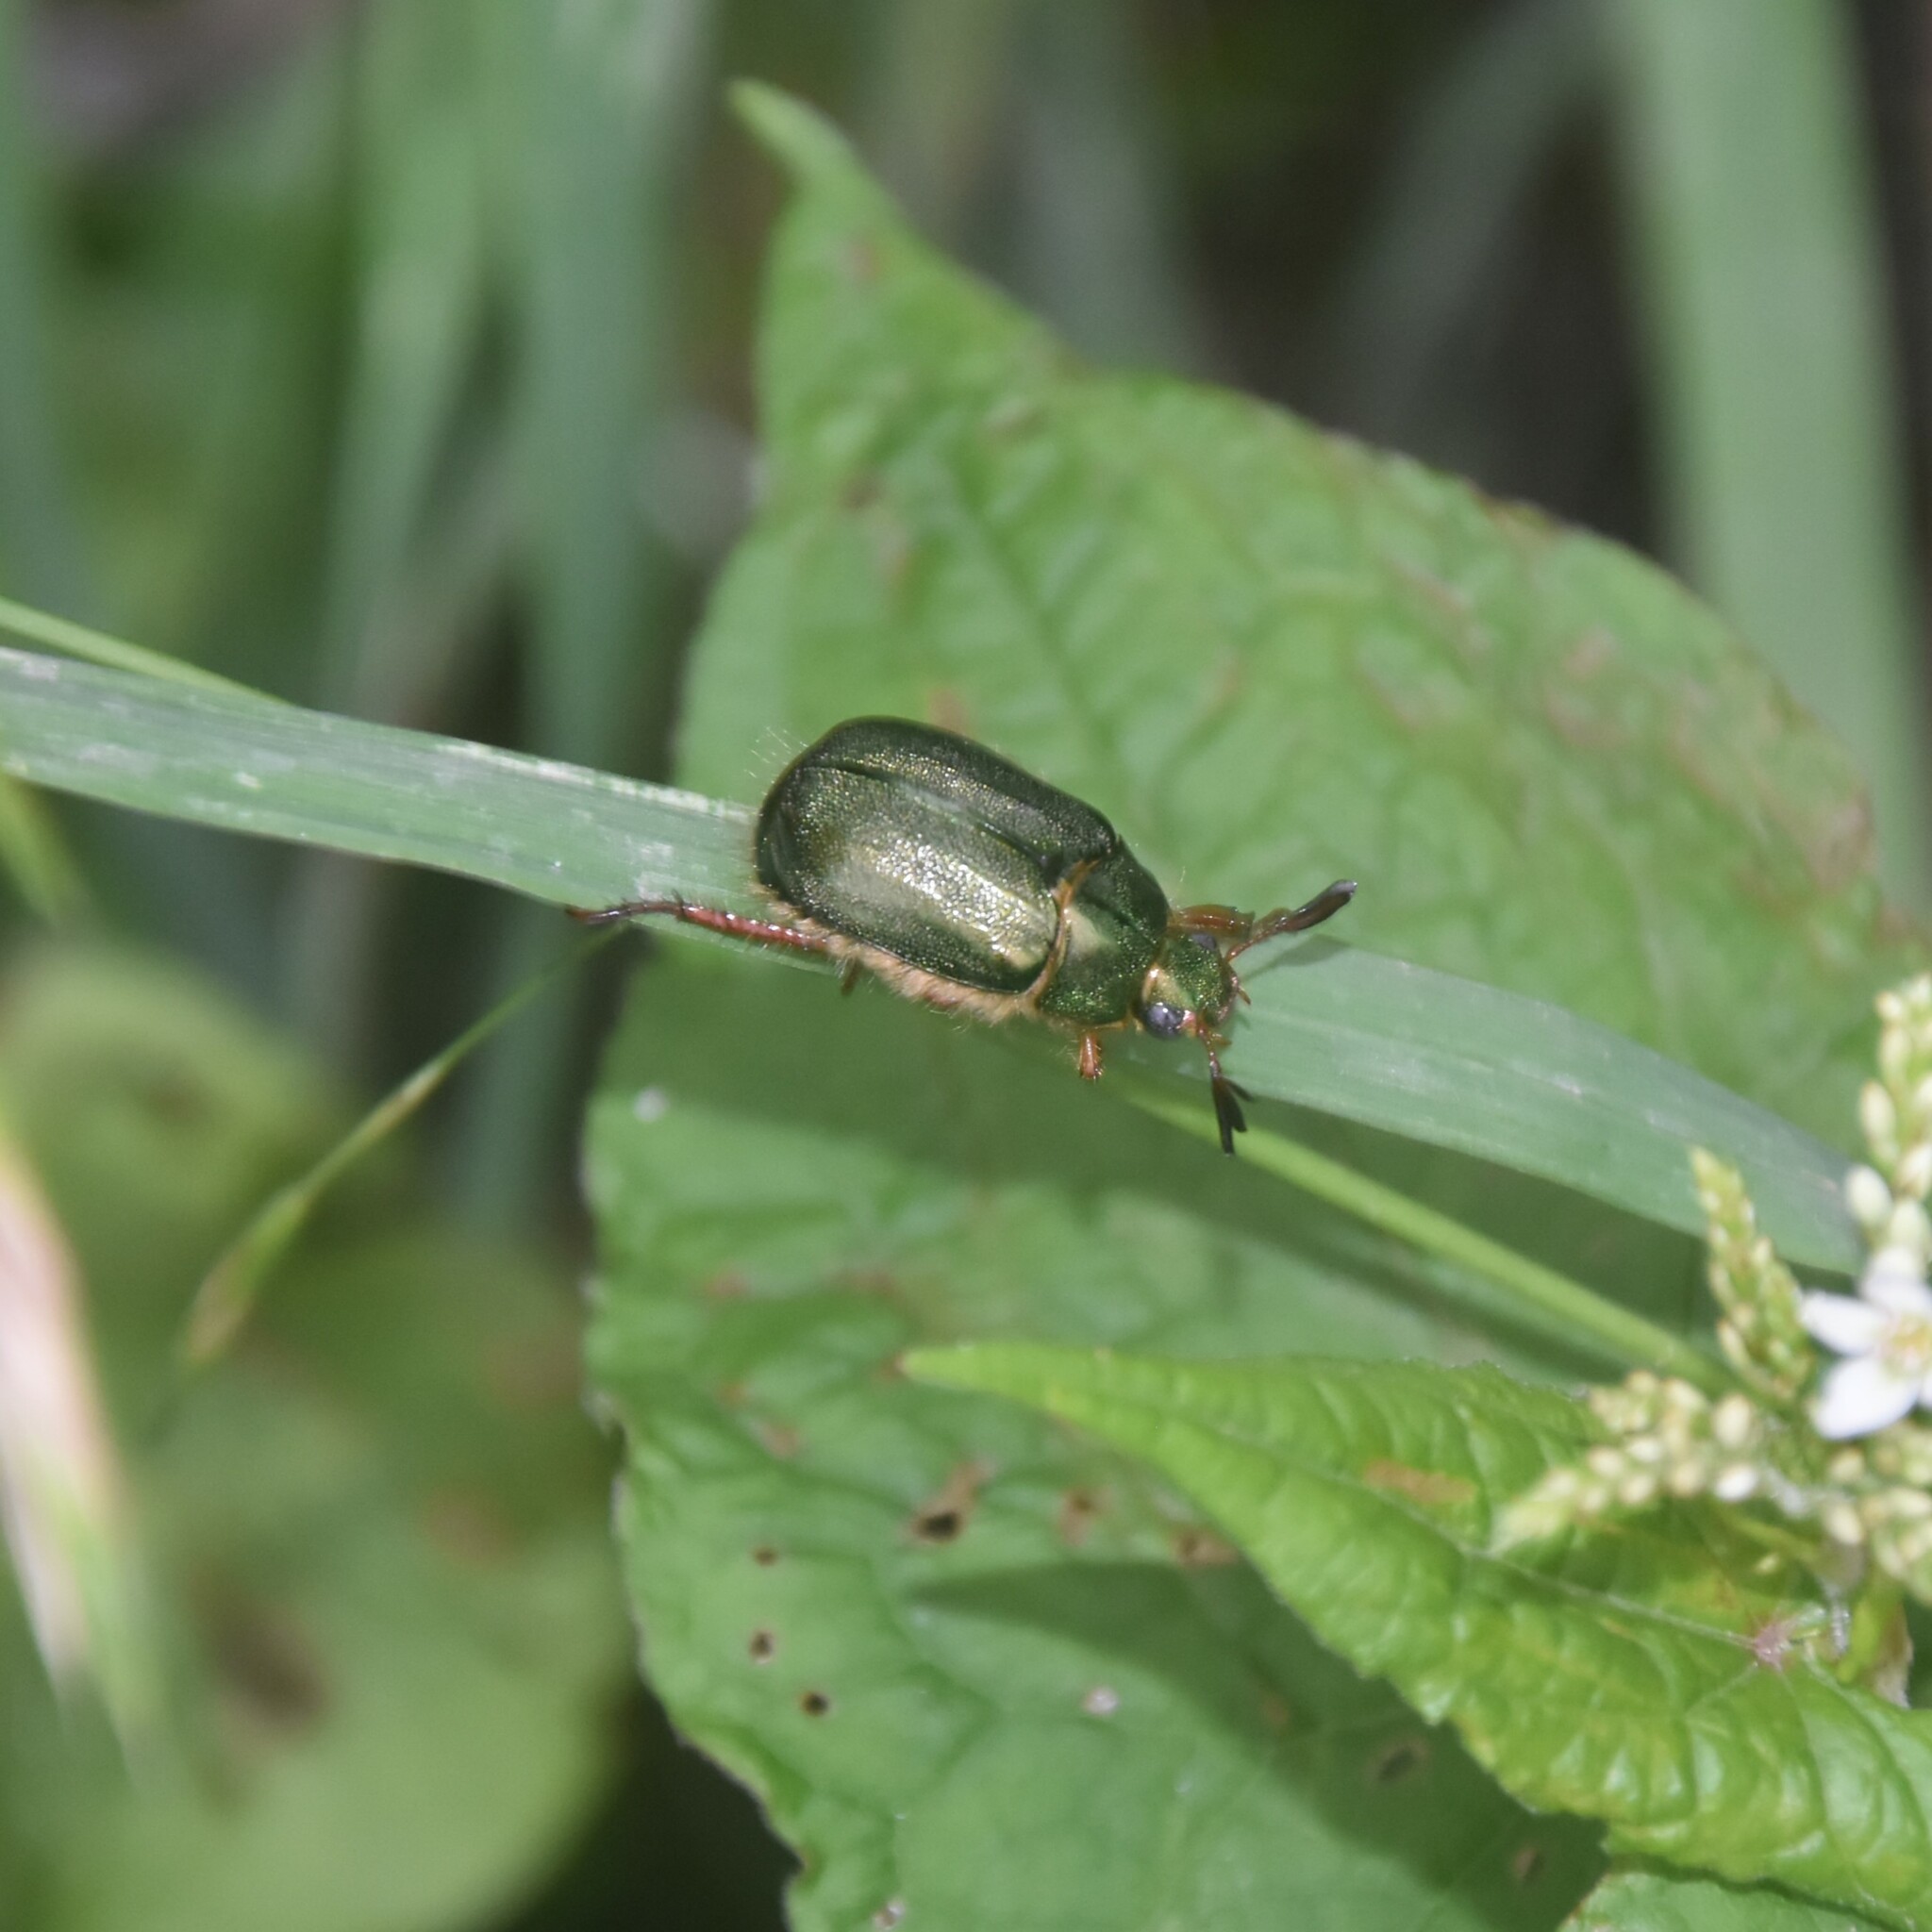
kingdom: Animalia
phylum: Arthropoda
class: Insecta
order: Coleoptera
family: Scarabaeidae
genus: Mimela
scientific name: Mimela pectoralis
